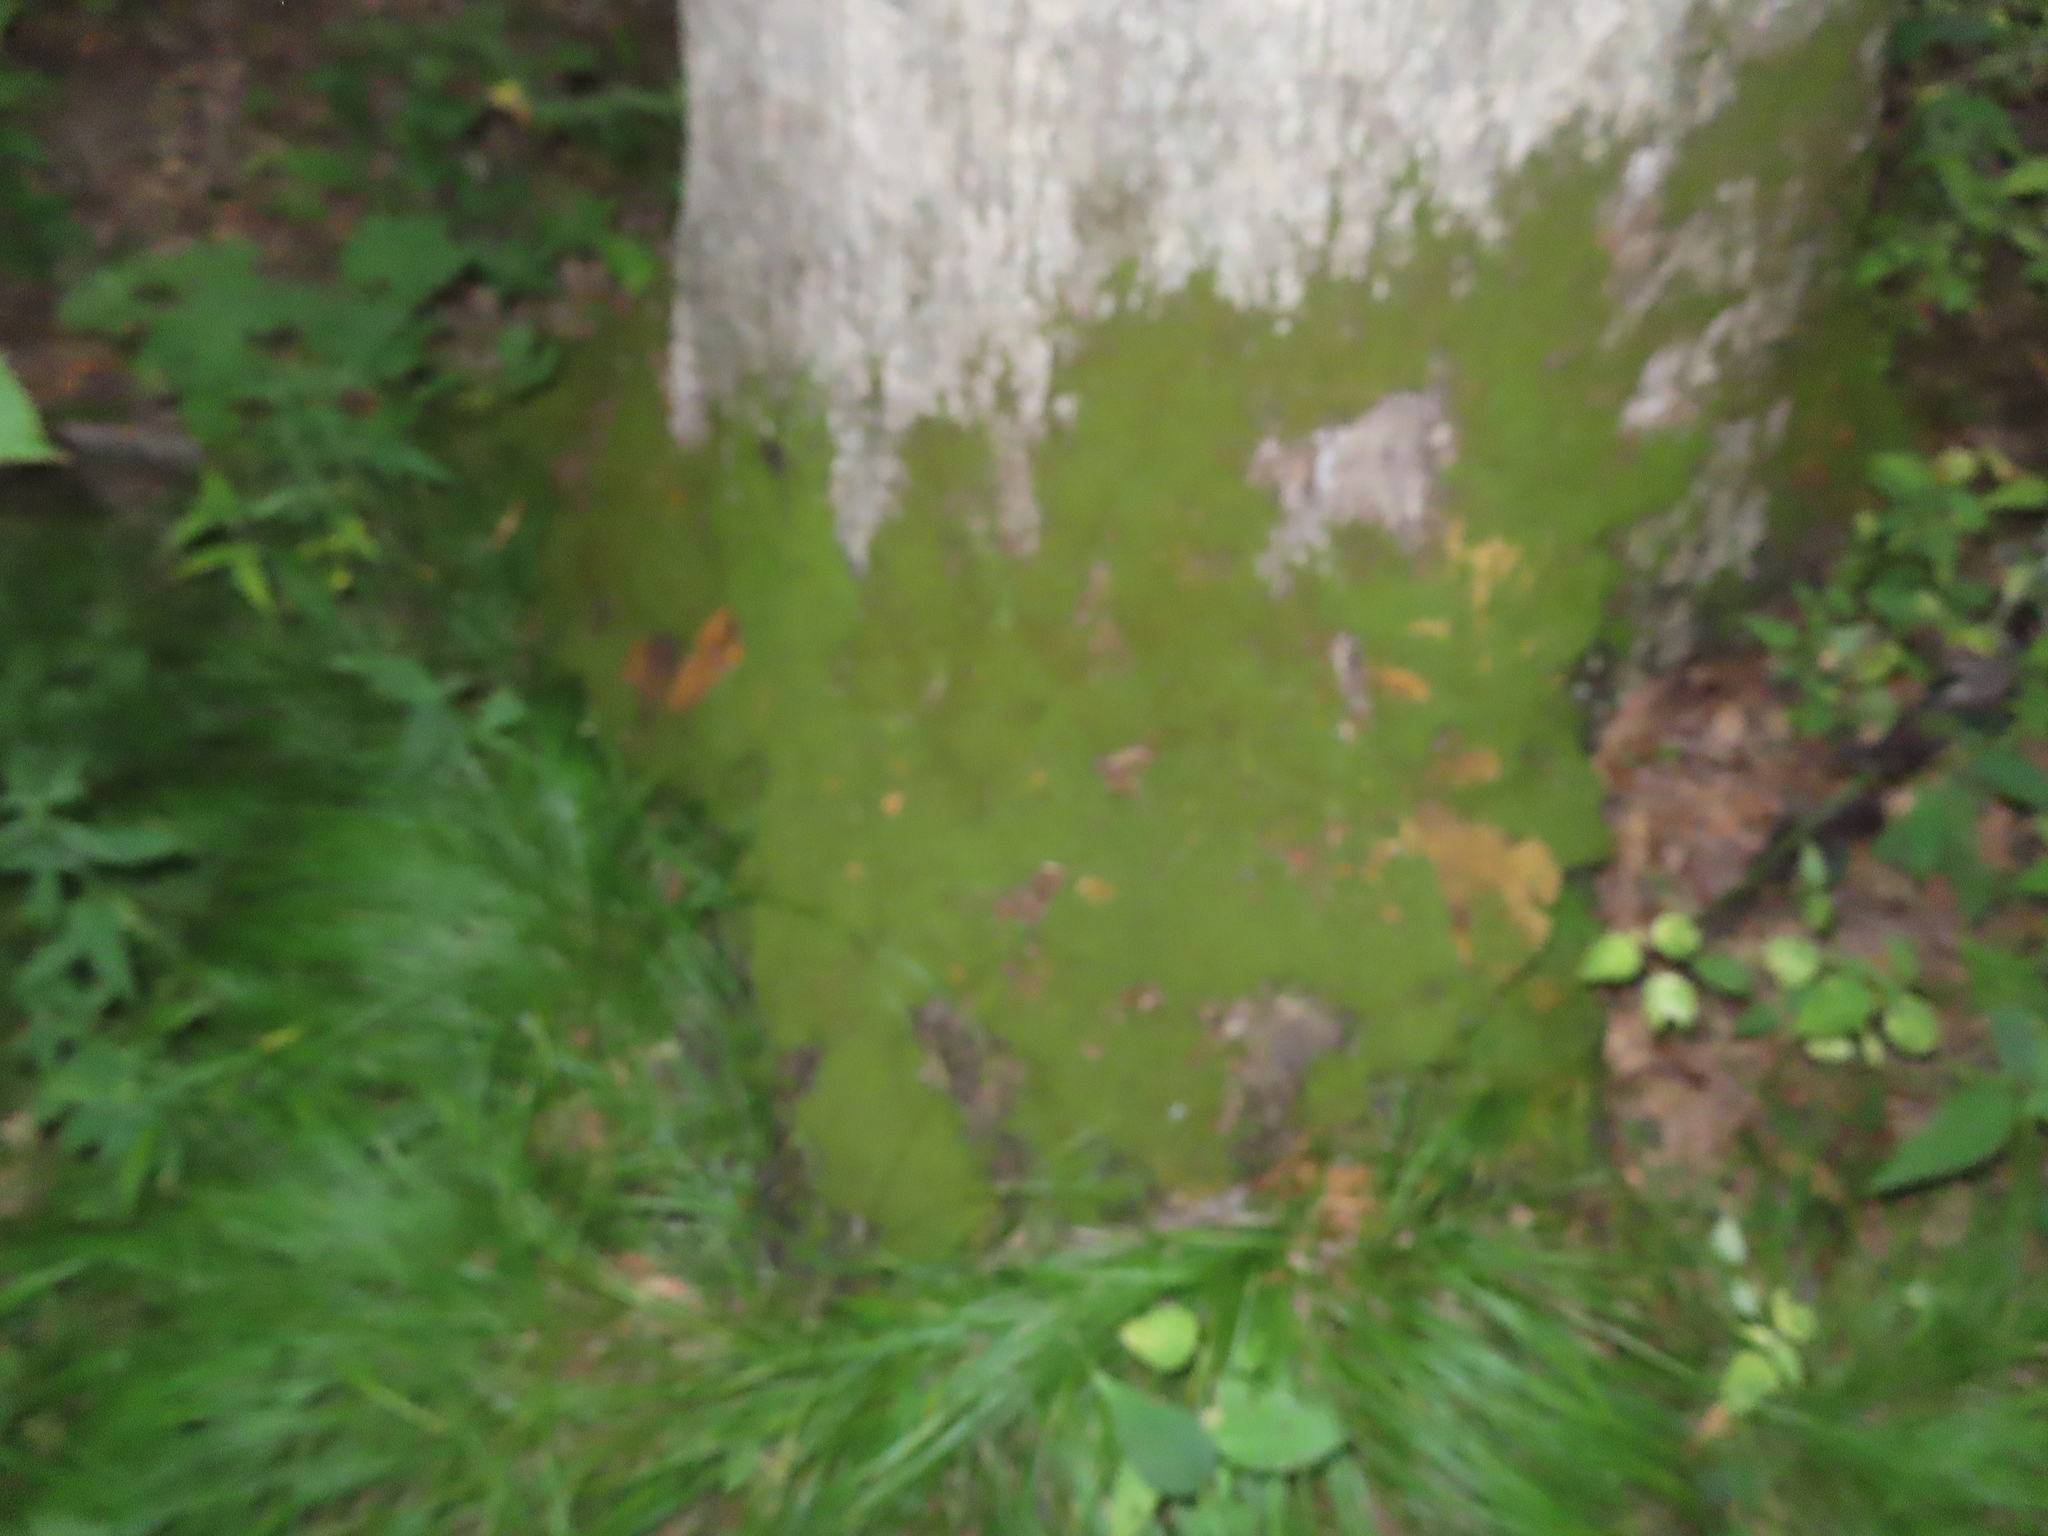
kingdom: Plantae
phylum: Bryophyta
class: Bryopsida
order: Hypnales
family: Neckeraceae
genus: Pseudanomodon
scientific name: Pseudanomodon attenuatus
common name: Tree-skirt moss
